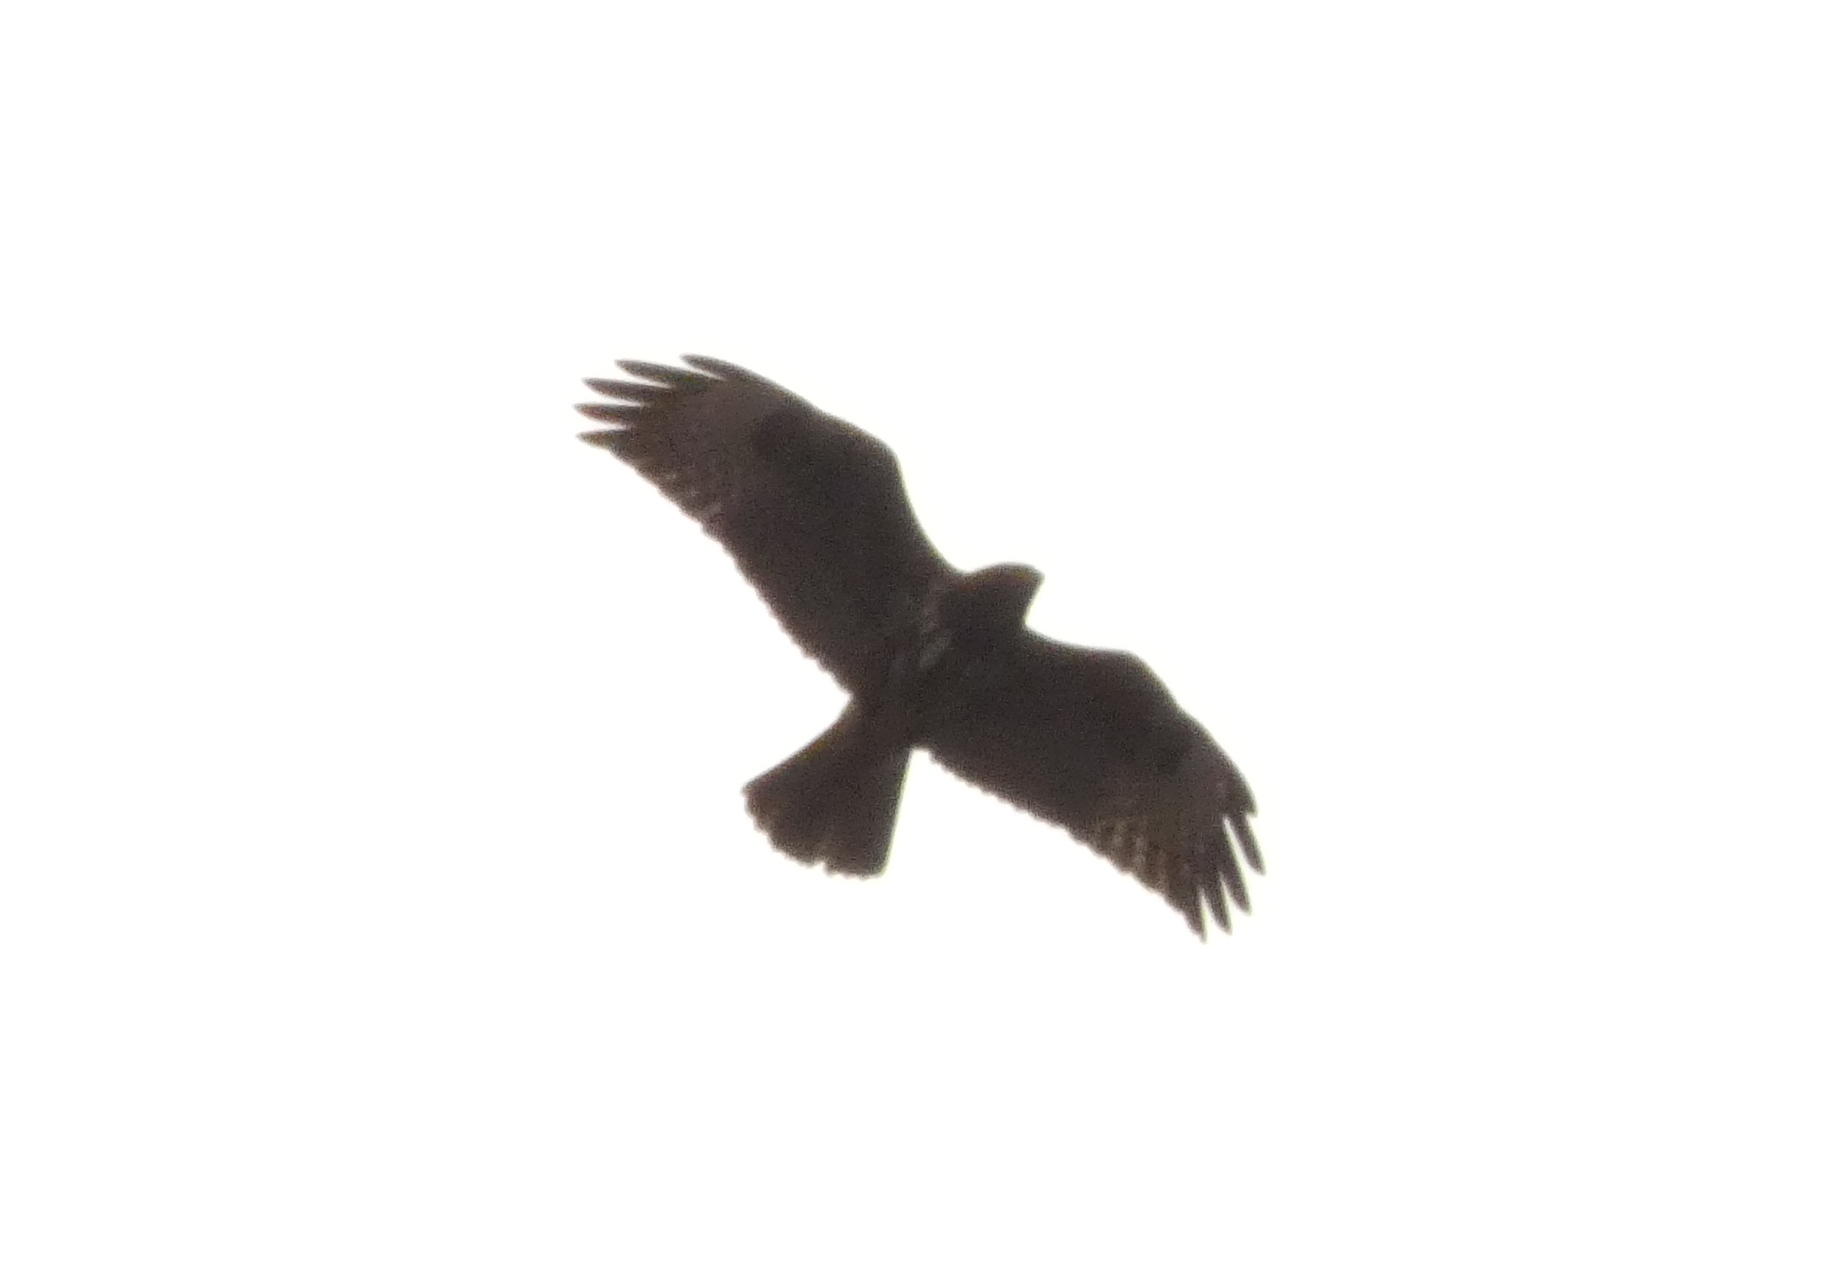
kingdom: Animalia
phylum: Chordata
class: Aves
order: Accipitriformes
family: Accipitridae
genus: Buteo
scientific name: Buteo buteo
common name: Common buzzard
